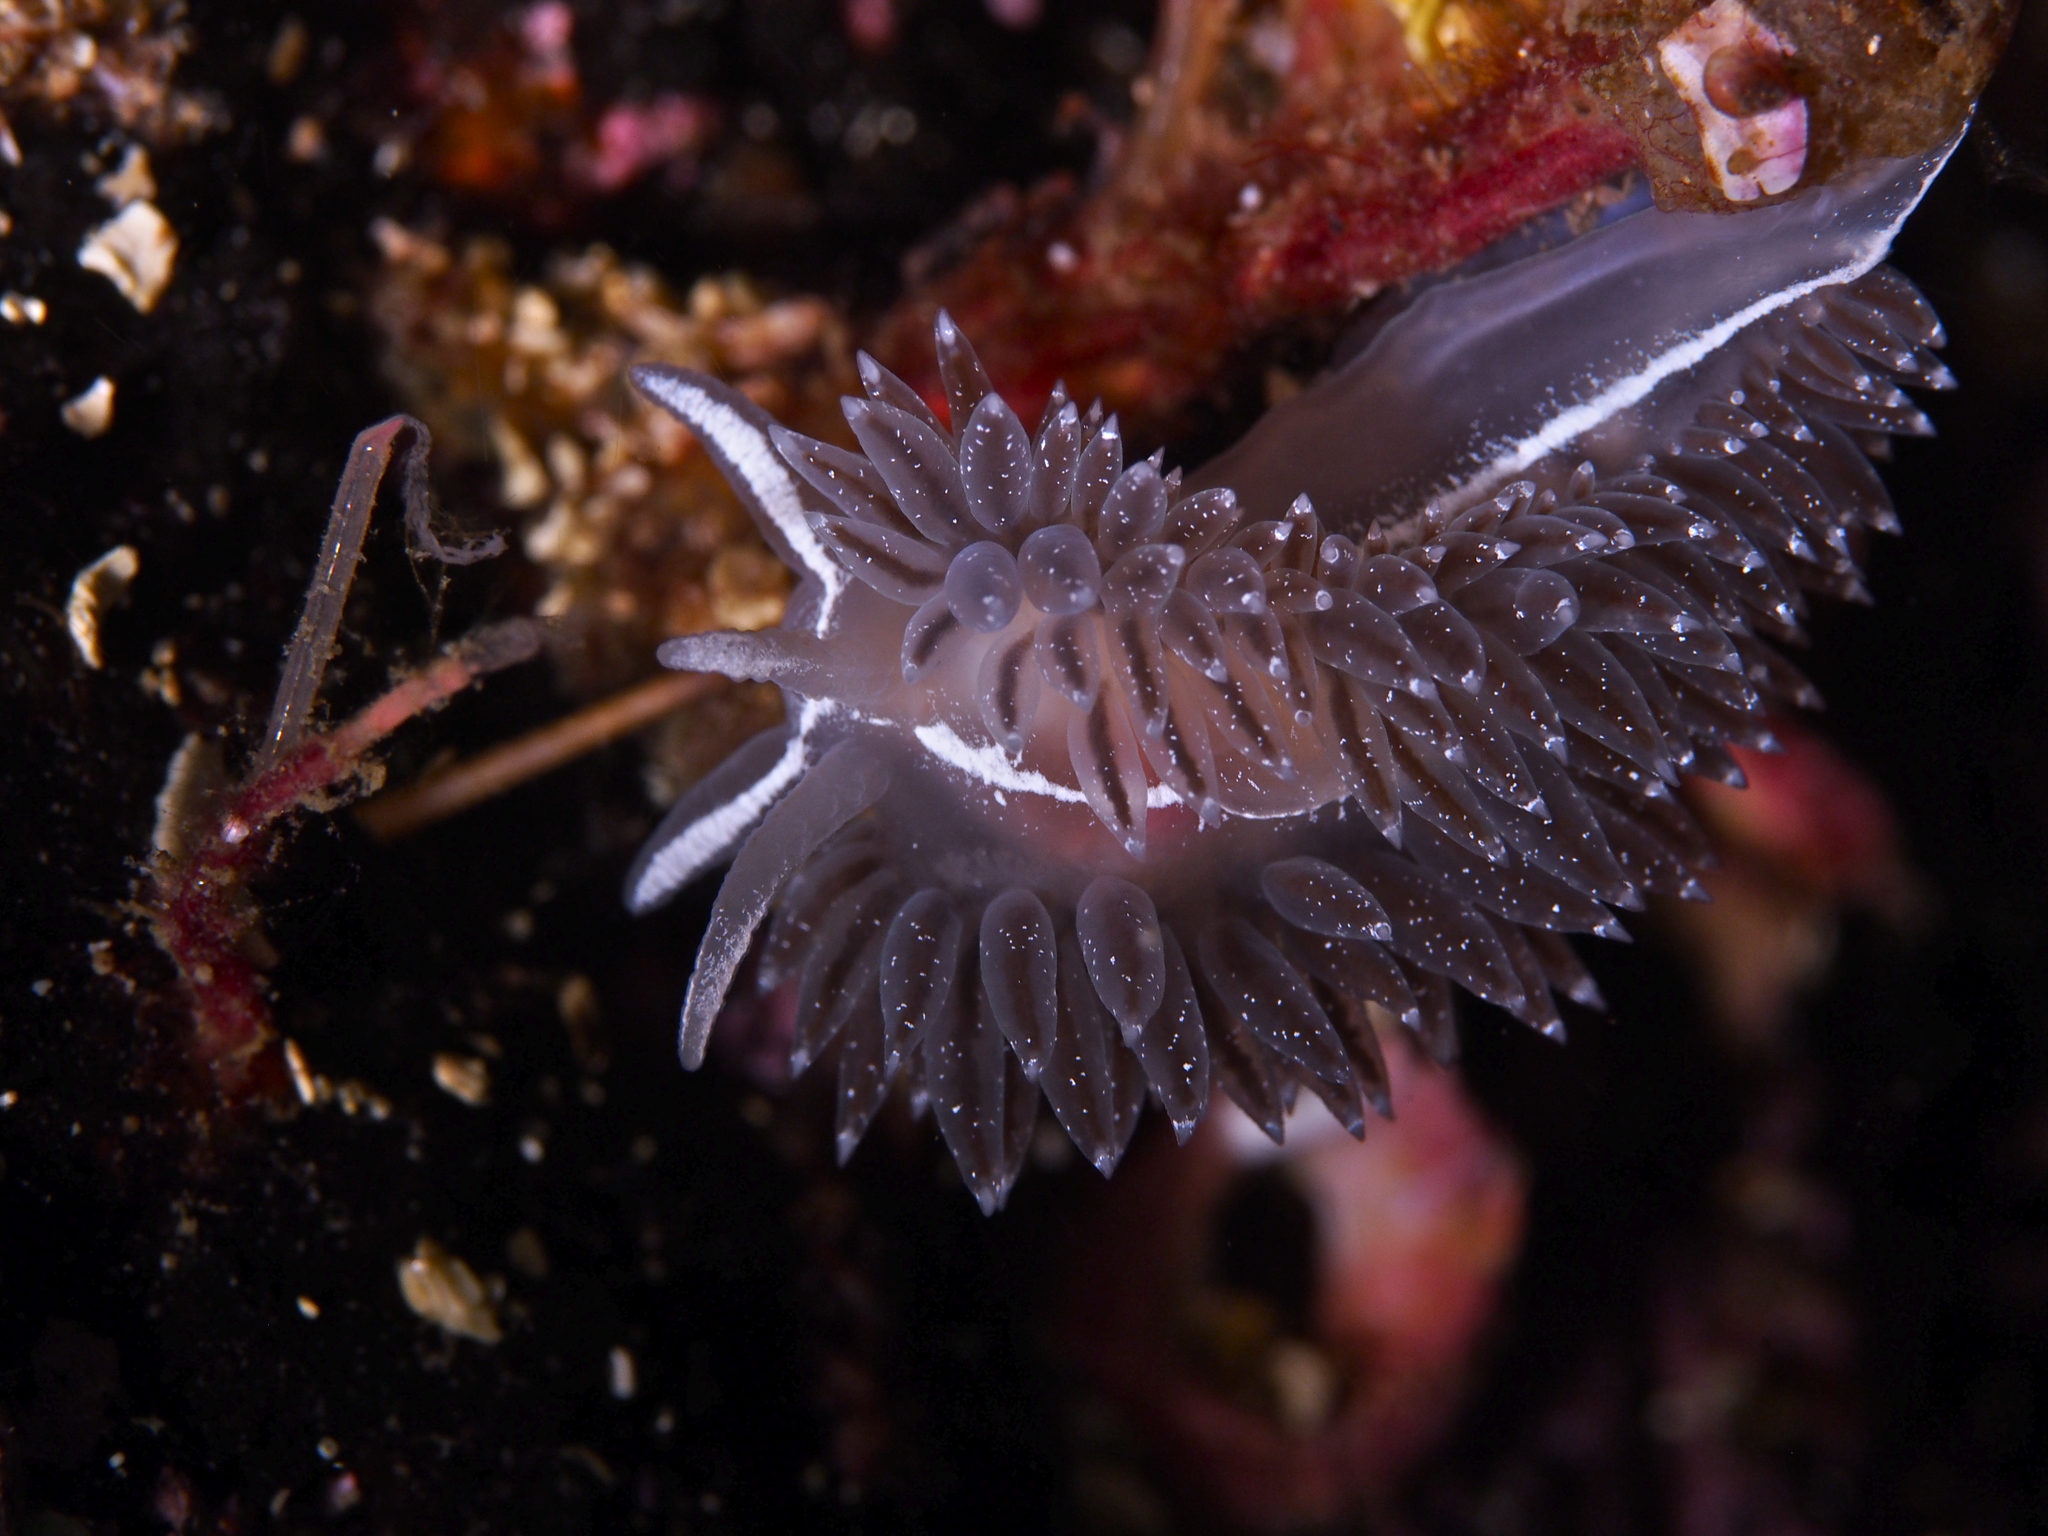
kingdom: Animalia
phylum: Mollusca
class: Gastropoda
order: Nudibranchia
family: Coryphellidae
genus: Coryphella
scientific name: Coryphella orjani
